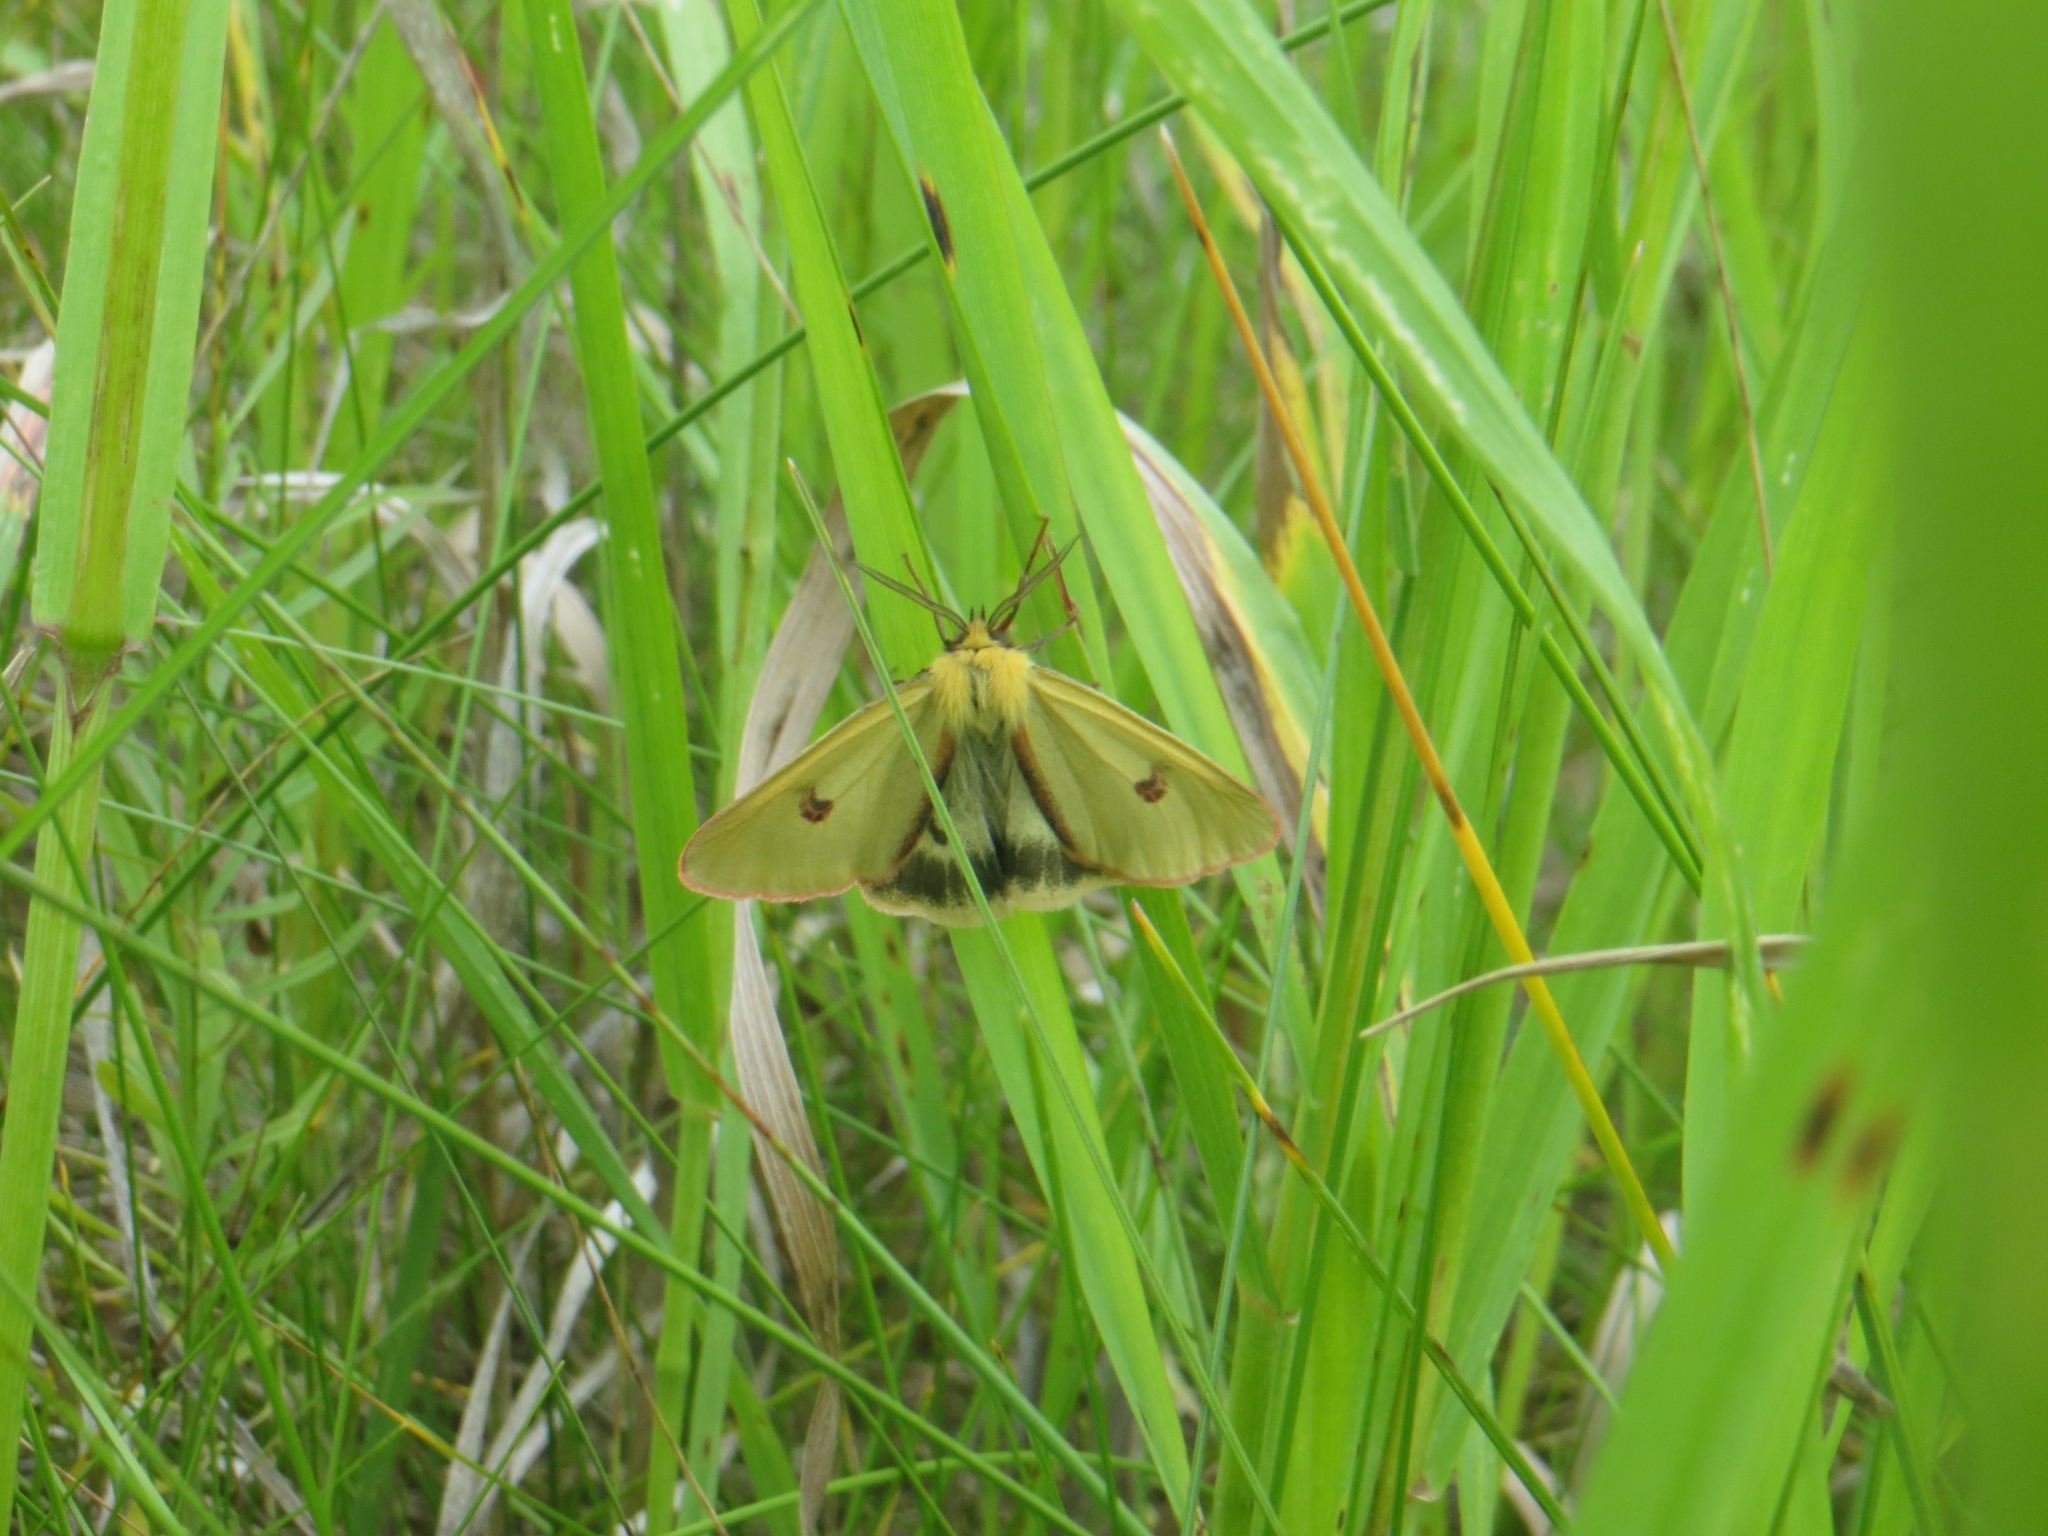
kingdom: Animalia
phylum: Arthropoda
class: Insecta
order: Lepidoptera
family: Erebidae
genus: Diacrisia
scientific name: Diacrisia sannio
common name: Clouded buff
